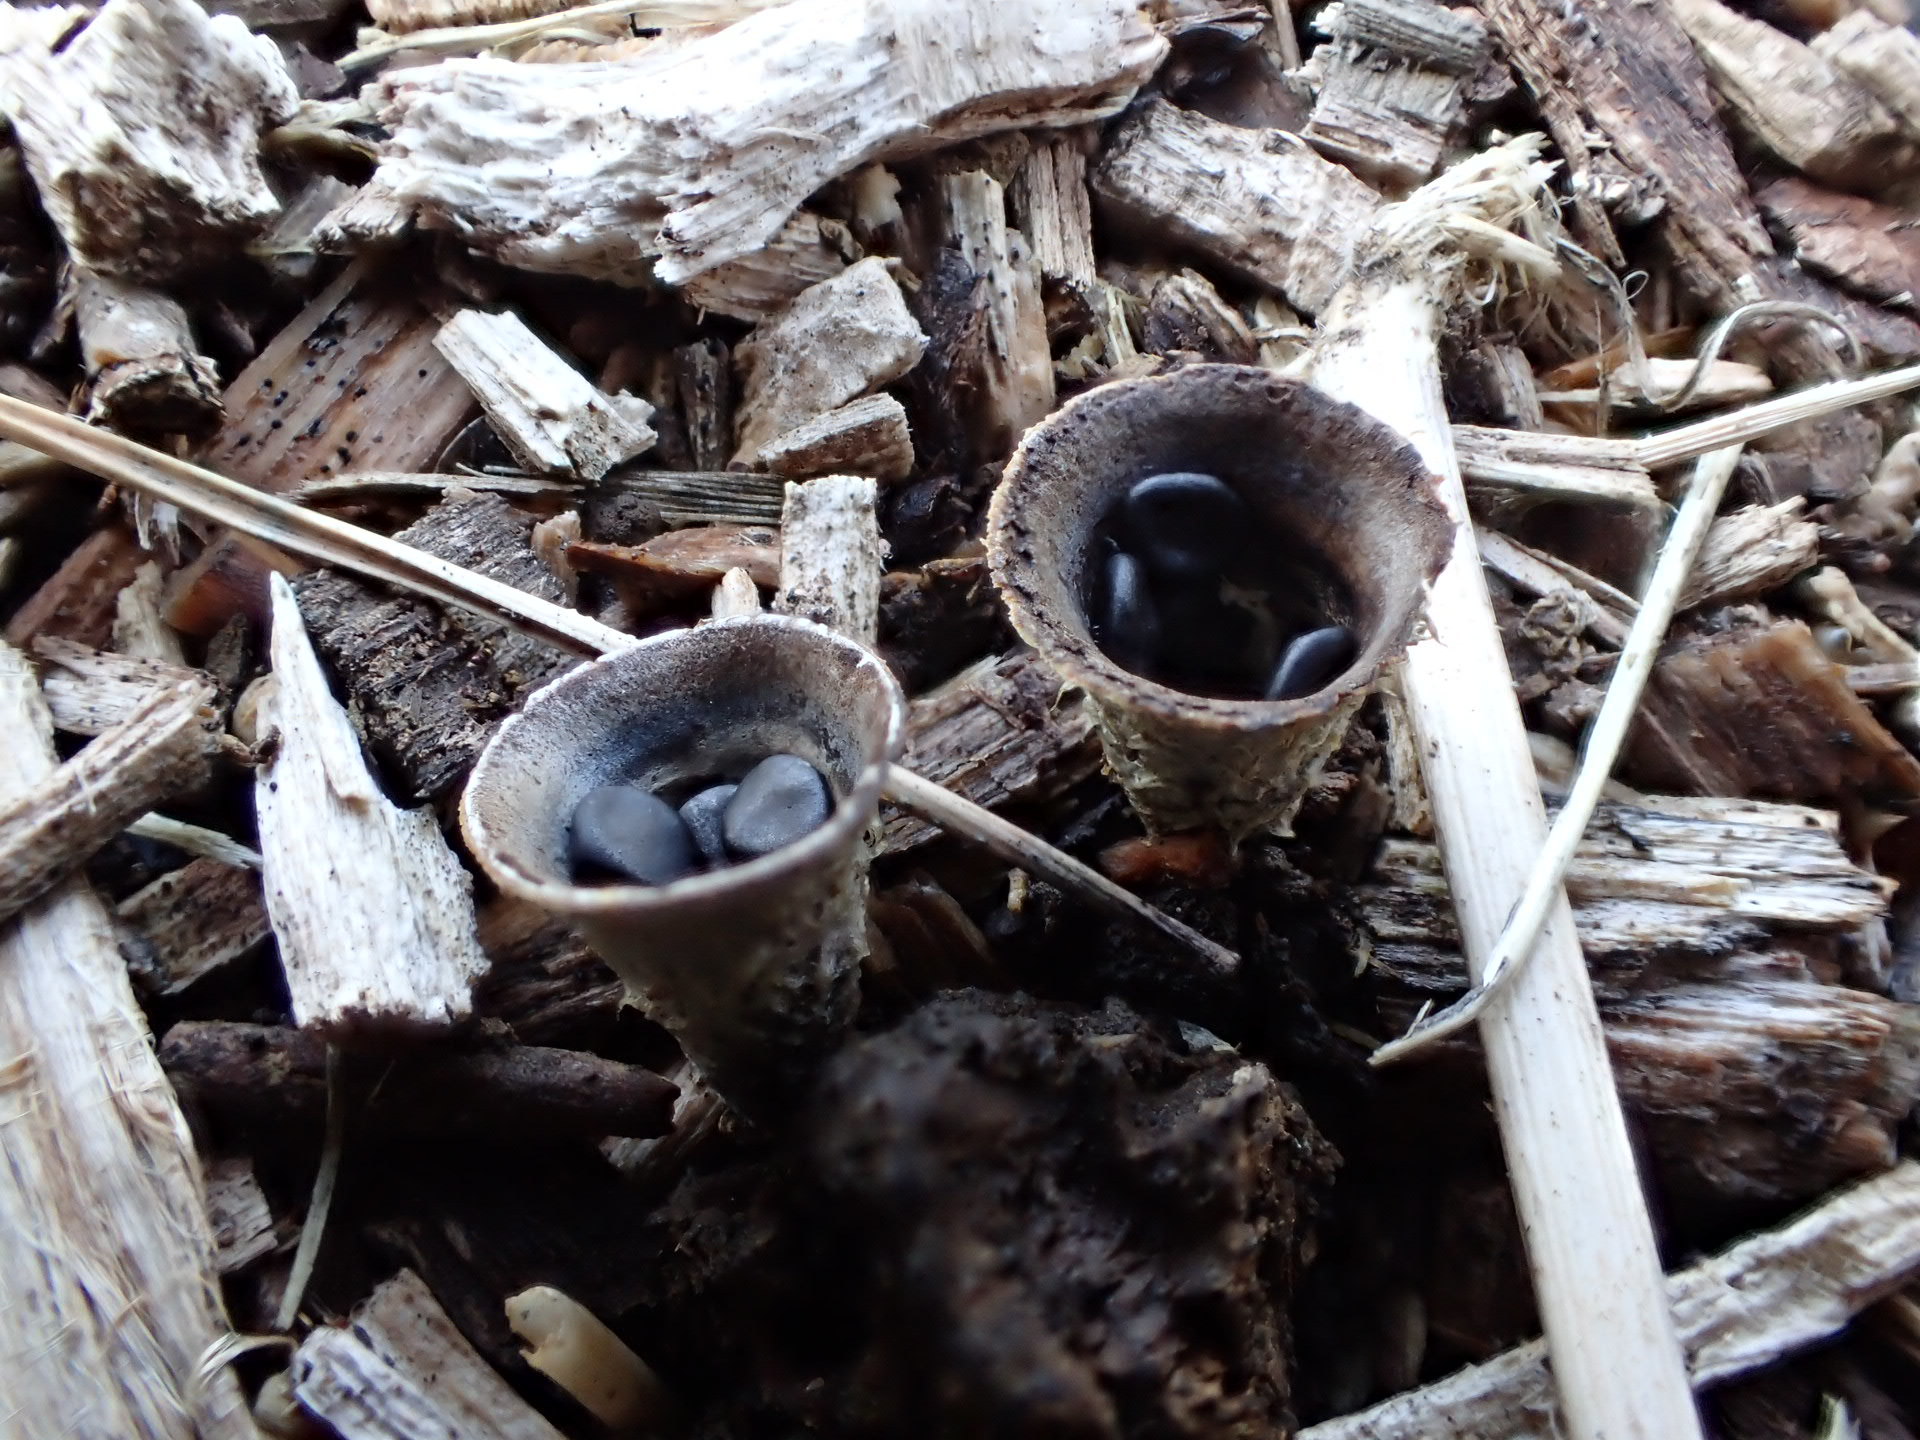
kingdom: Fungi
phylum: Basidiomycota
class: Agaricomycetes
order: Agaricales
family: Agaricaceae
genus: Cyathus
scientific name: Cyathus stercoreus
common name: Dung bird's nest
